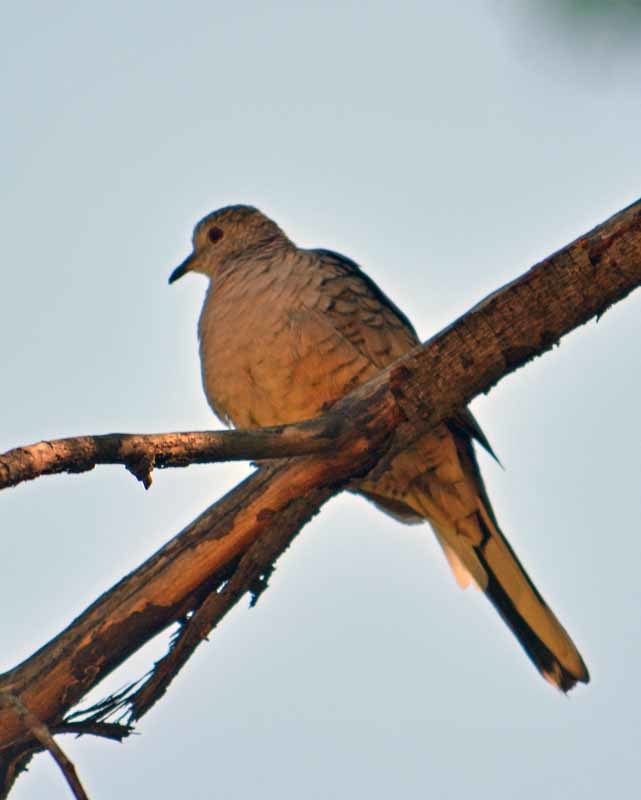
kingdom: Animalia
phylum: Chordata
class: Aves
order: Columbiformes
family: Columbidae
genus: Columbina
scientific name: Columbina inca
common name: Inca dove
